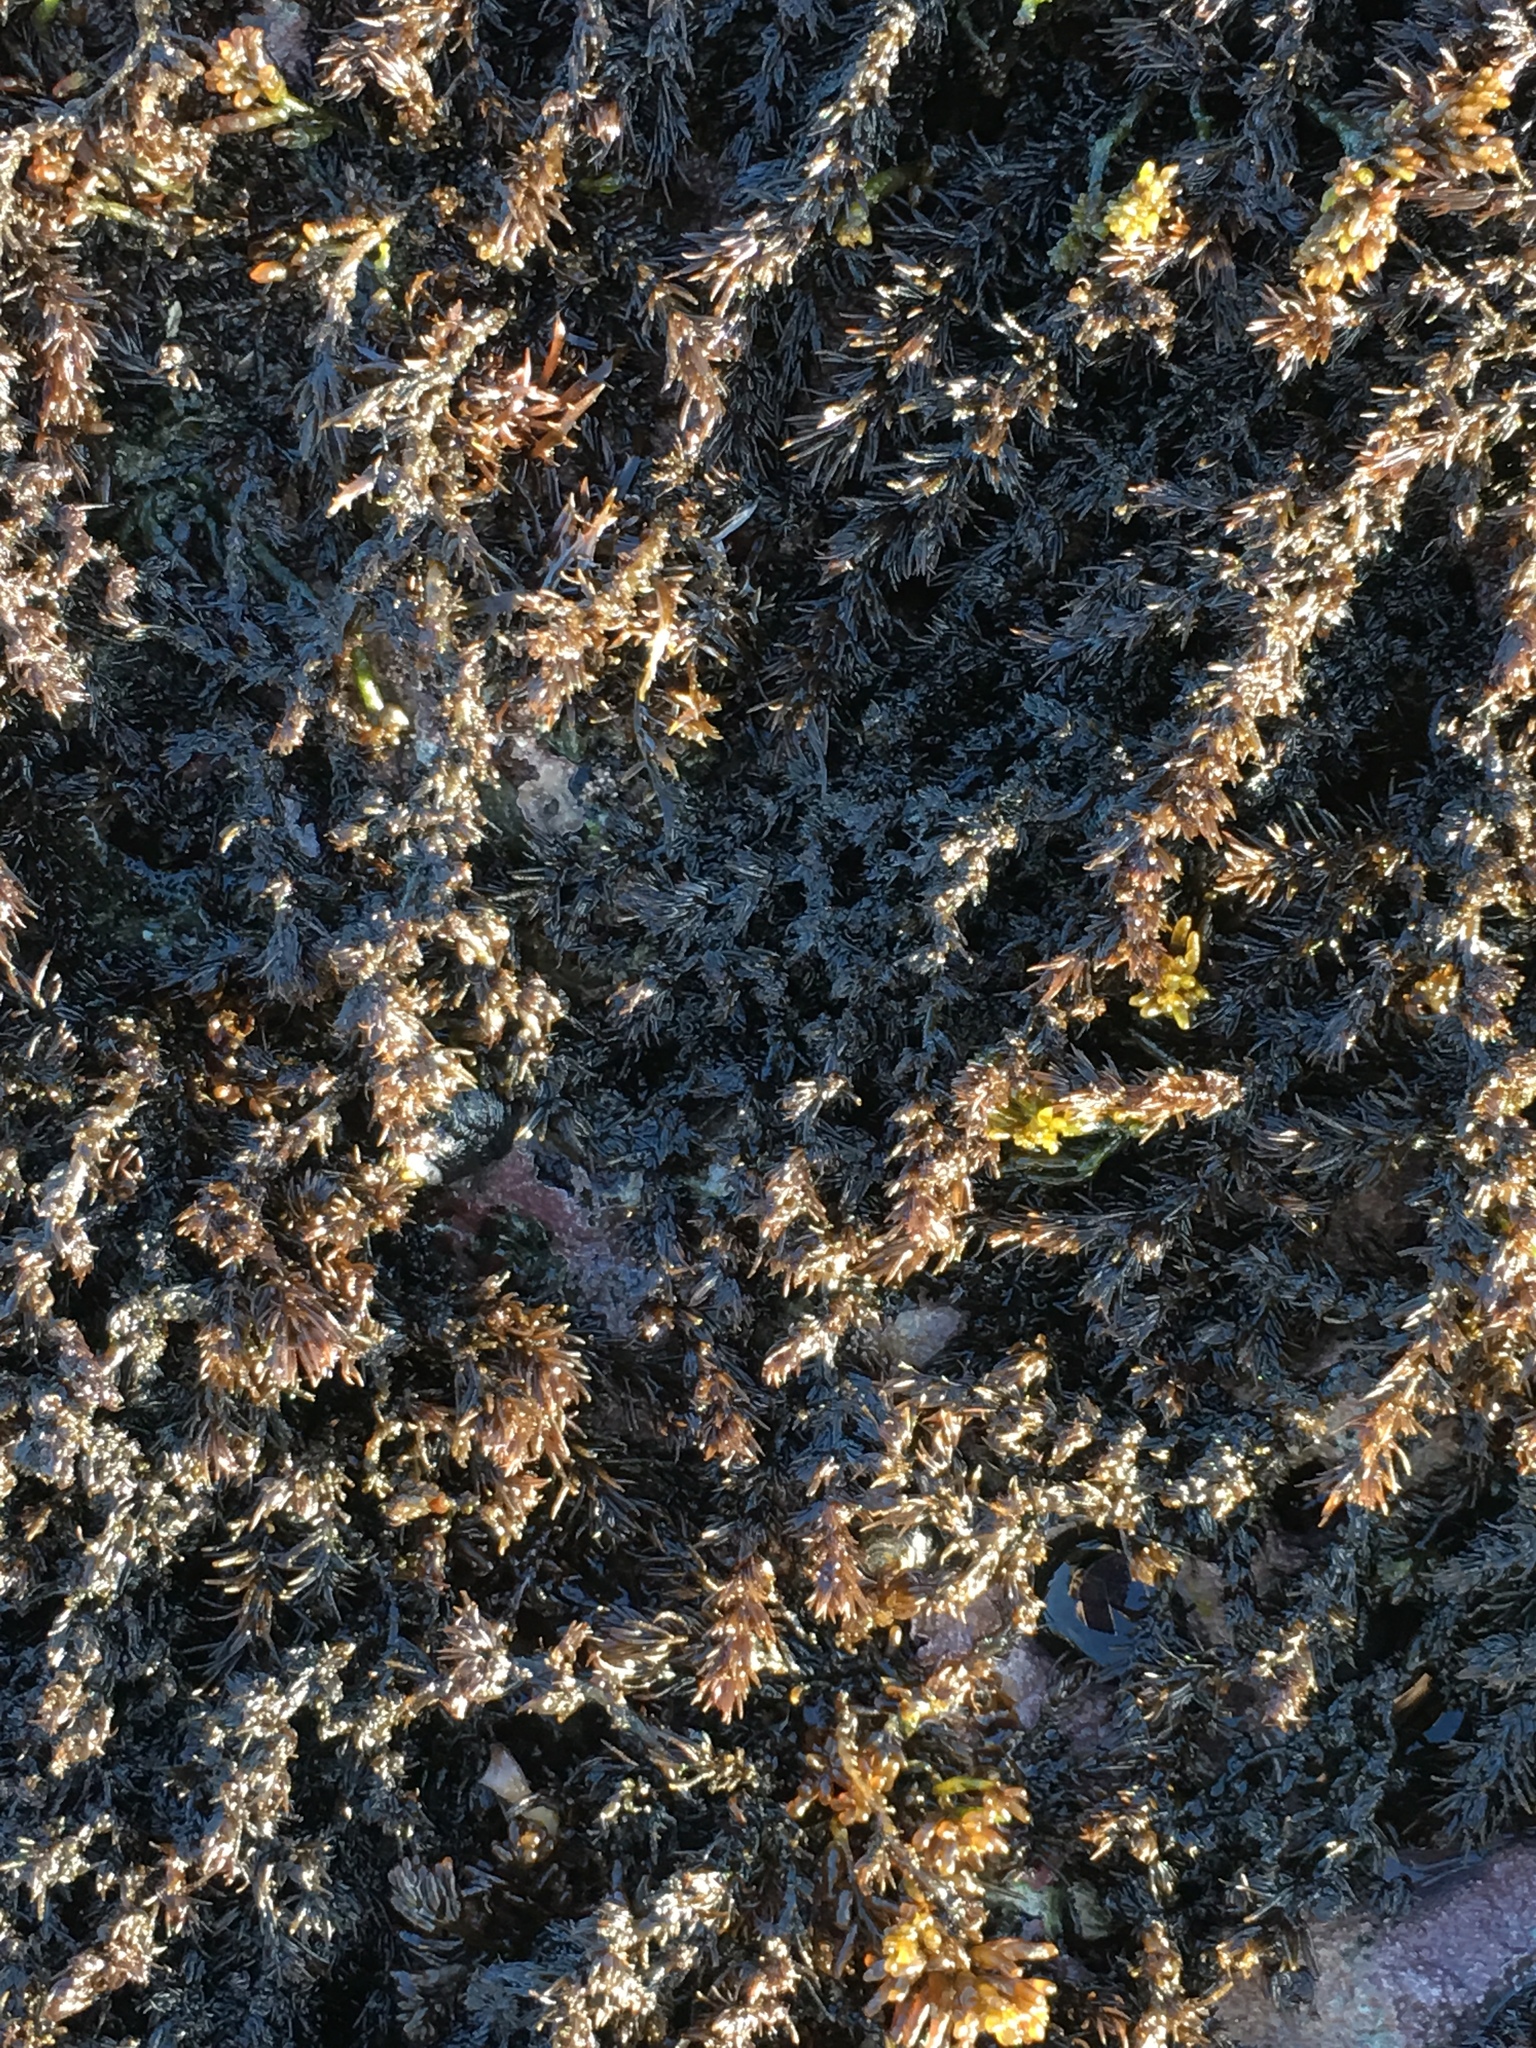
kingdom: Plantae
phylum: Rhodophyta
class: Florideophyceae
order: Ceramiales
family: Rhodomelaceae
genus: Neorhodomela
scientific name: Neorhodomela larix
